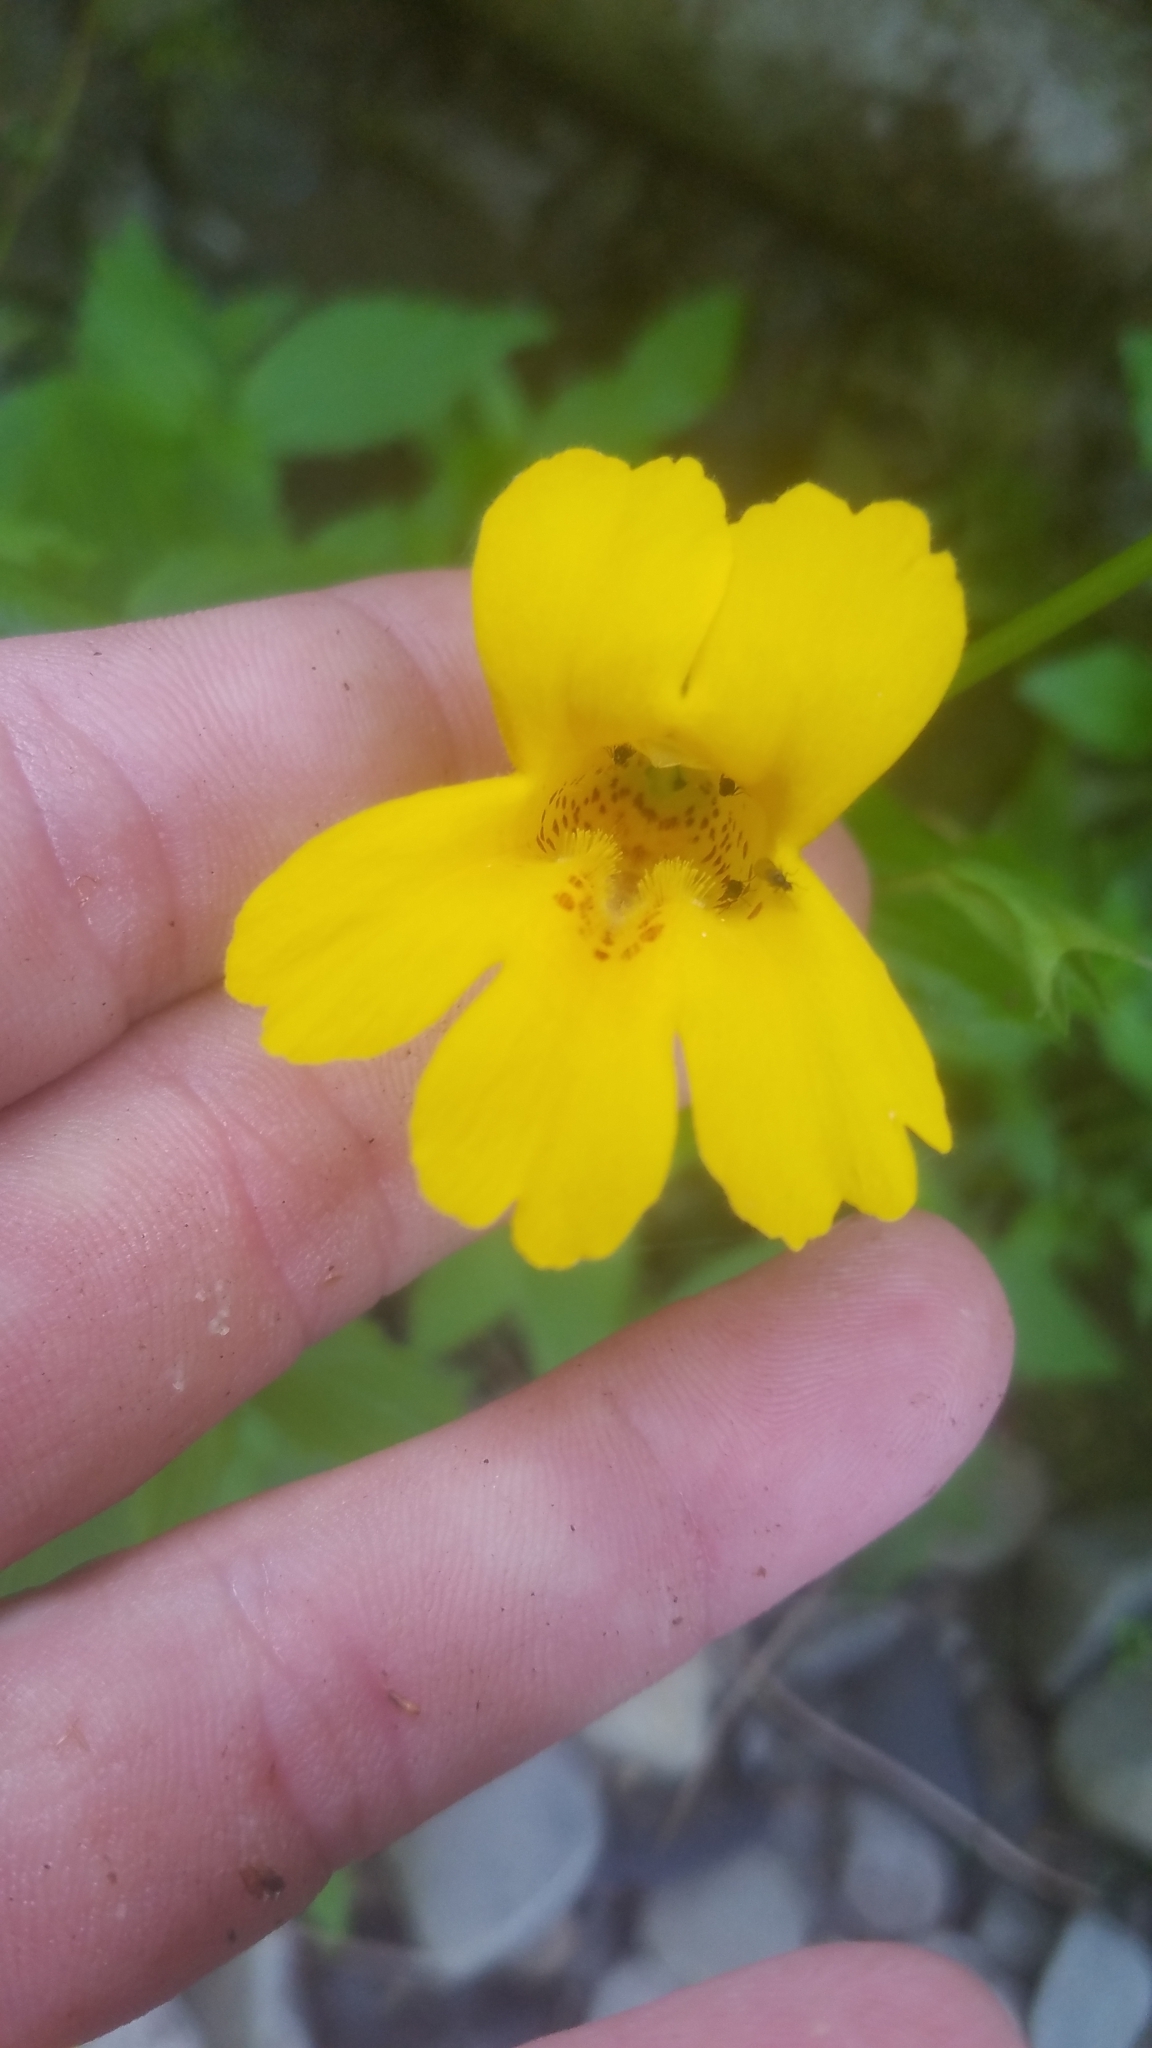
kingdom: Plantae
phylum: Tracheophyta
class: Magnoliopsida
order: Lamiales
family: Phrymaceae
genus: Erythranthe
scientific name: Erythranthe dentata
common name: Coastal monkeyflower
